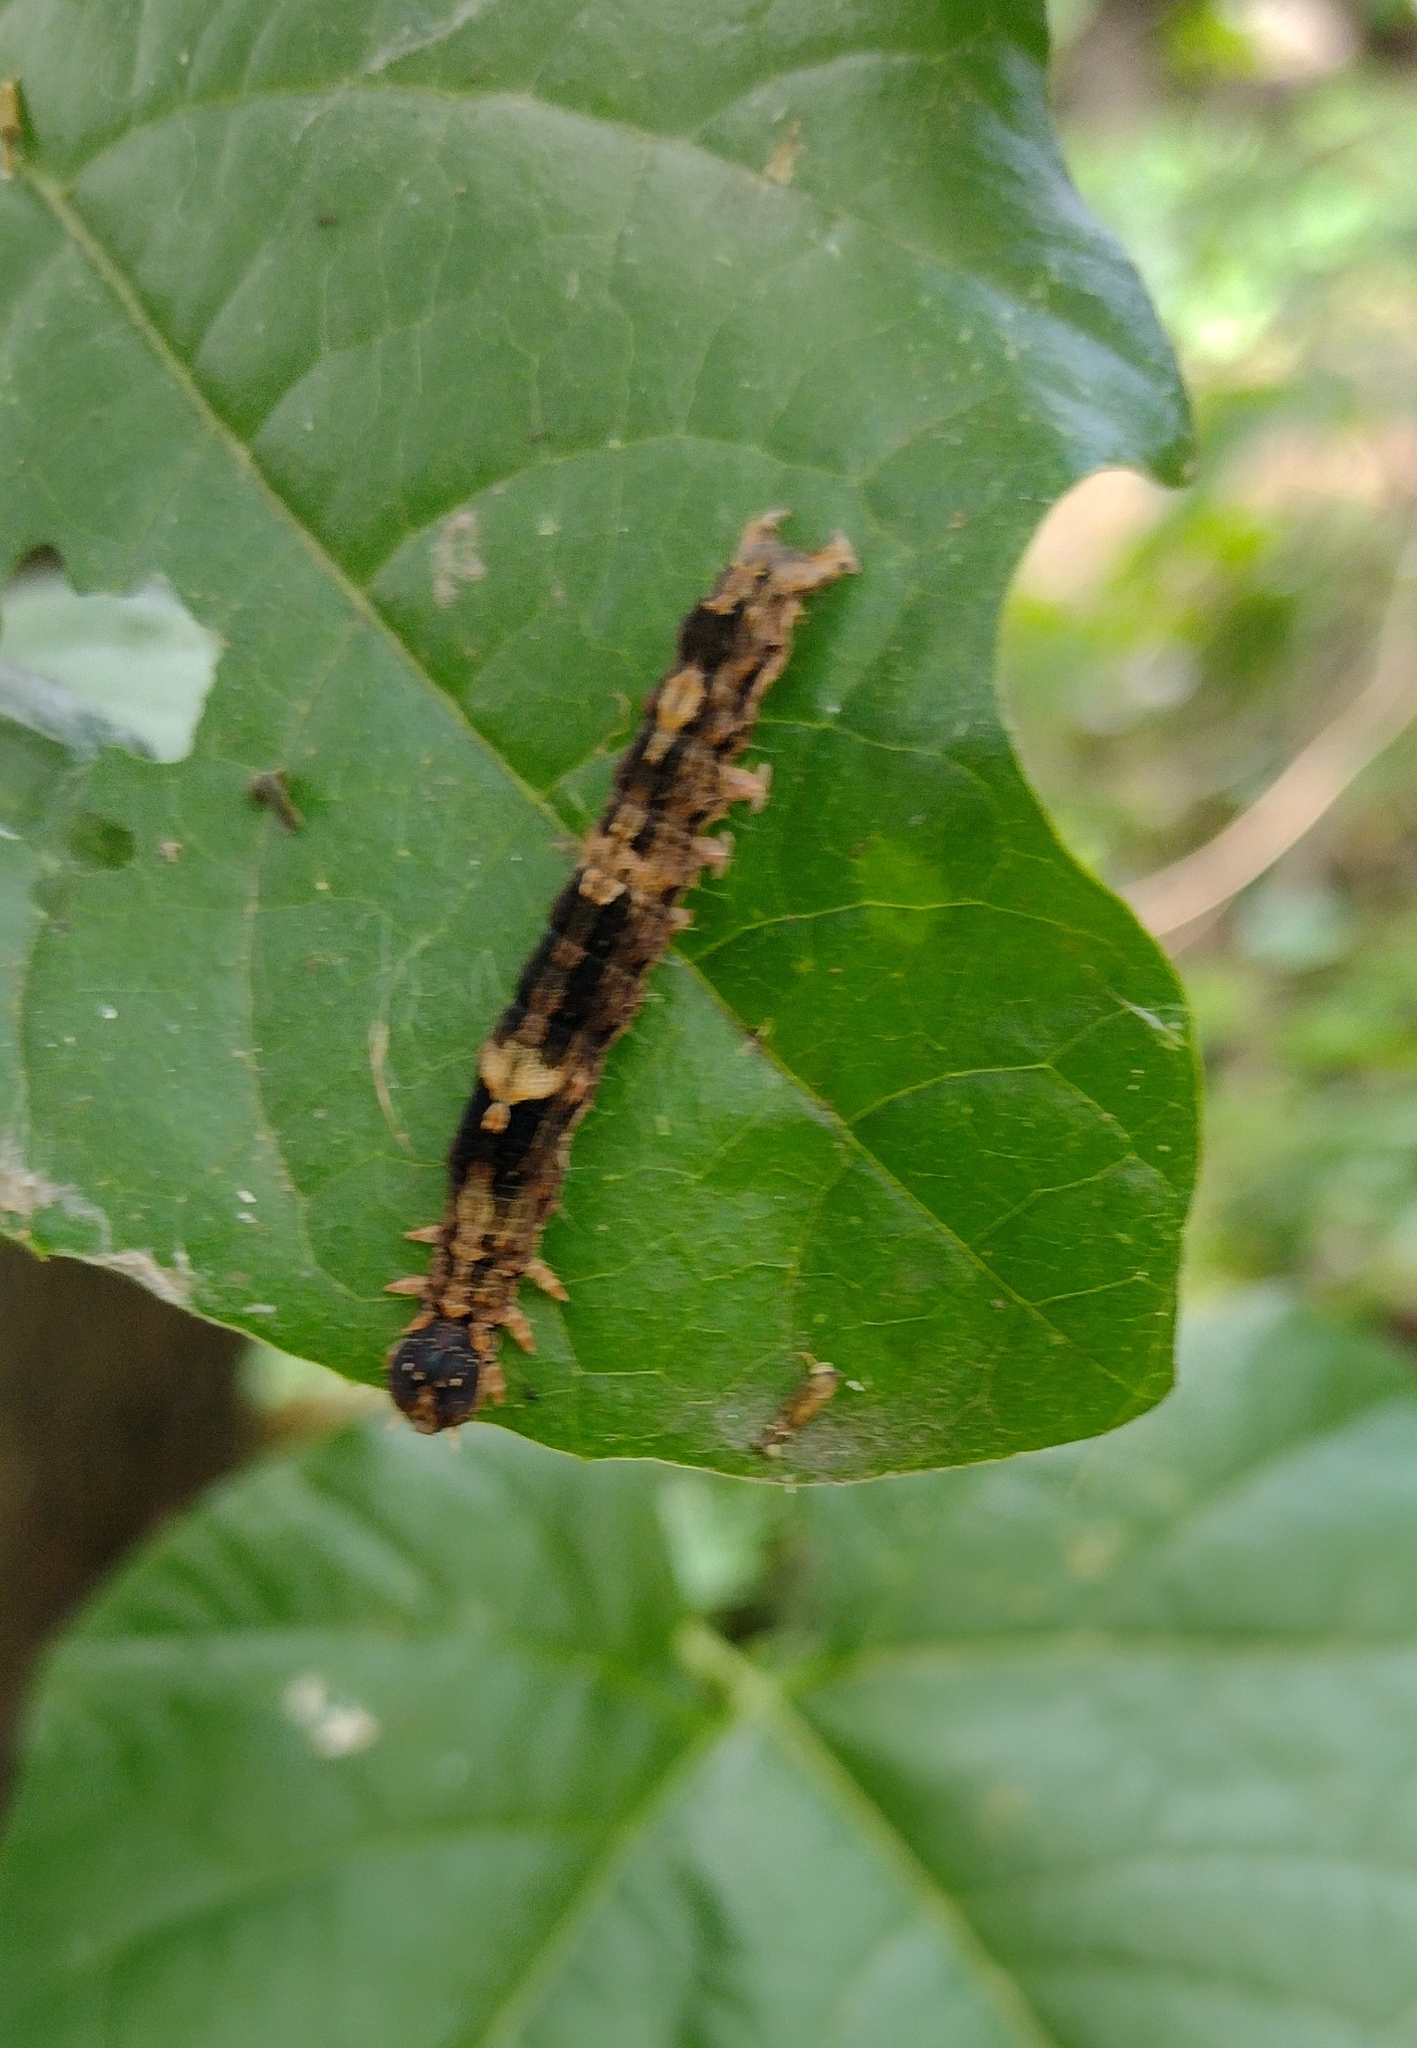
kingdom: Animalia
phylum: Arthropoda
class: Insecta
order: Lepidoptera
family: Erebidae
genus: Ascalapha
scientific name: Ascalapha odorata
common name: Black witch
